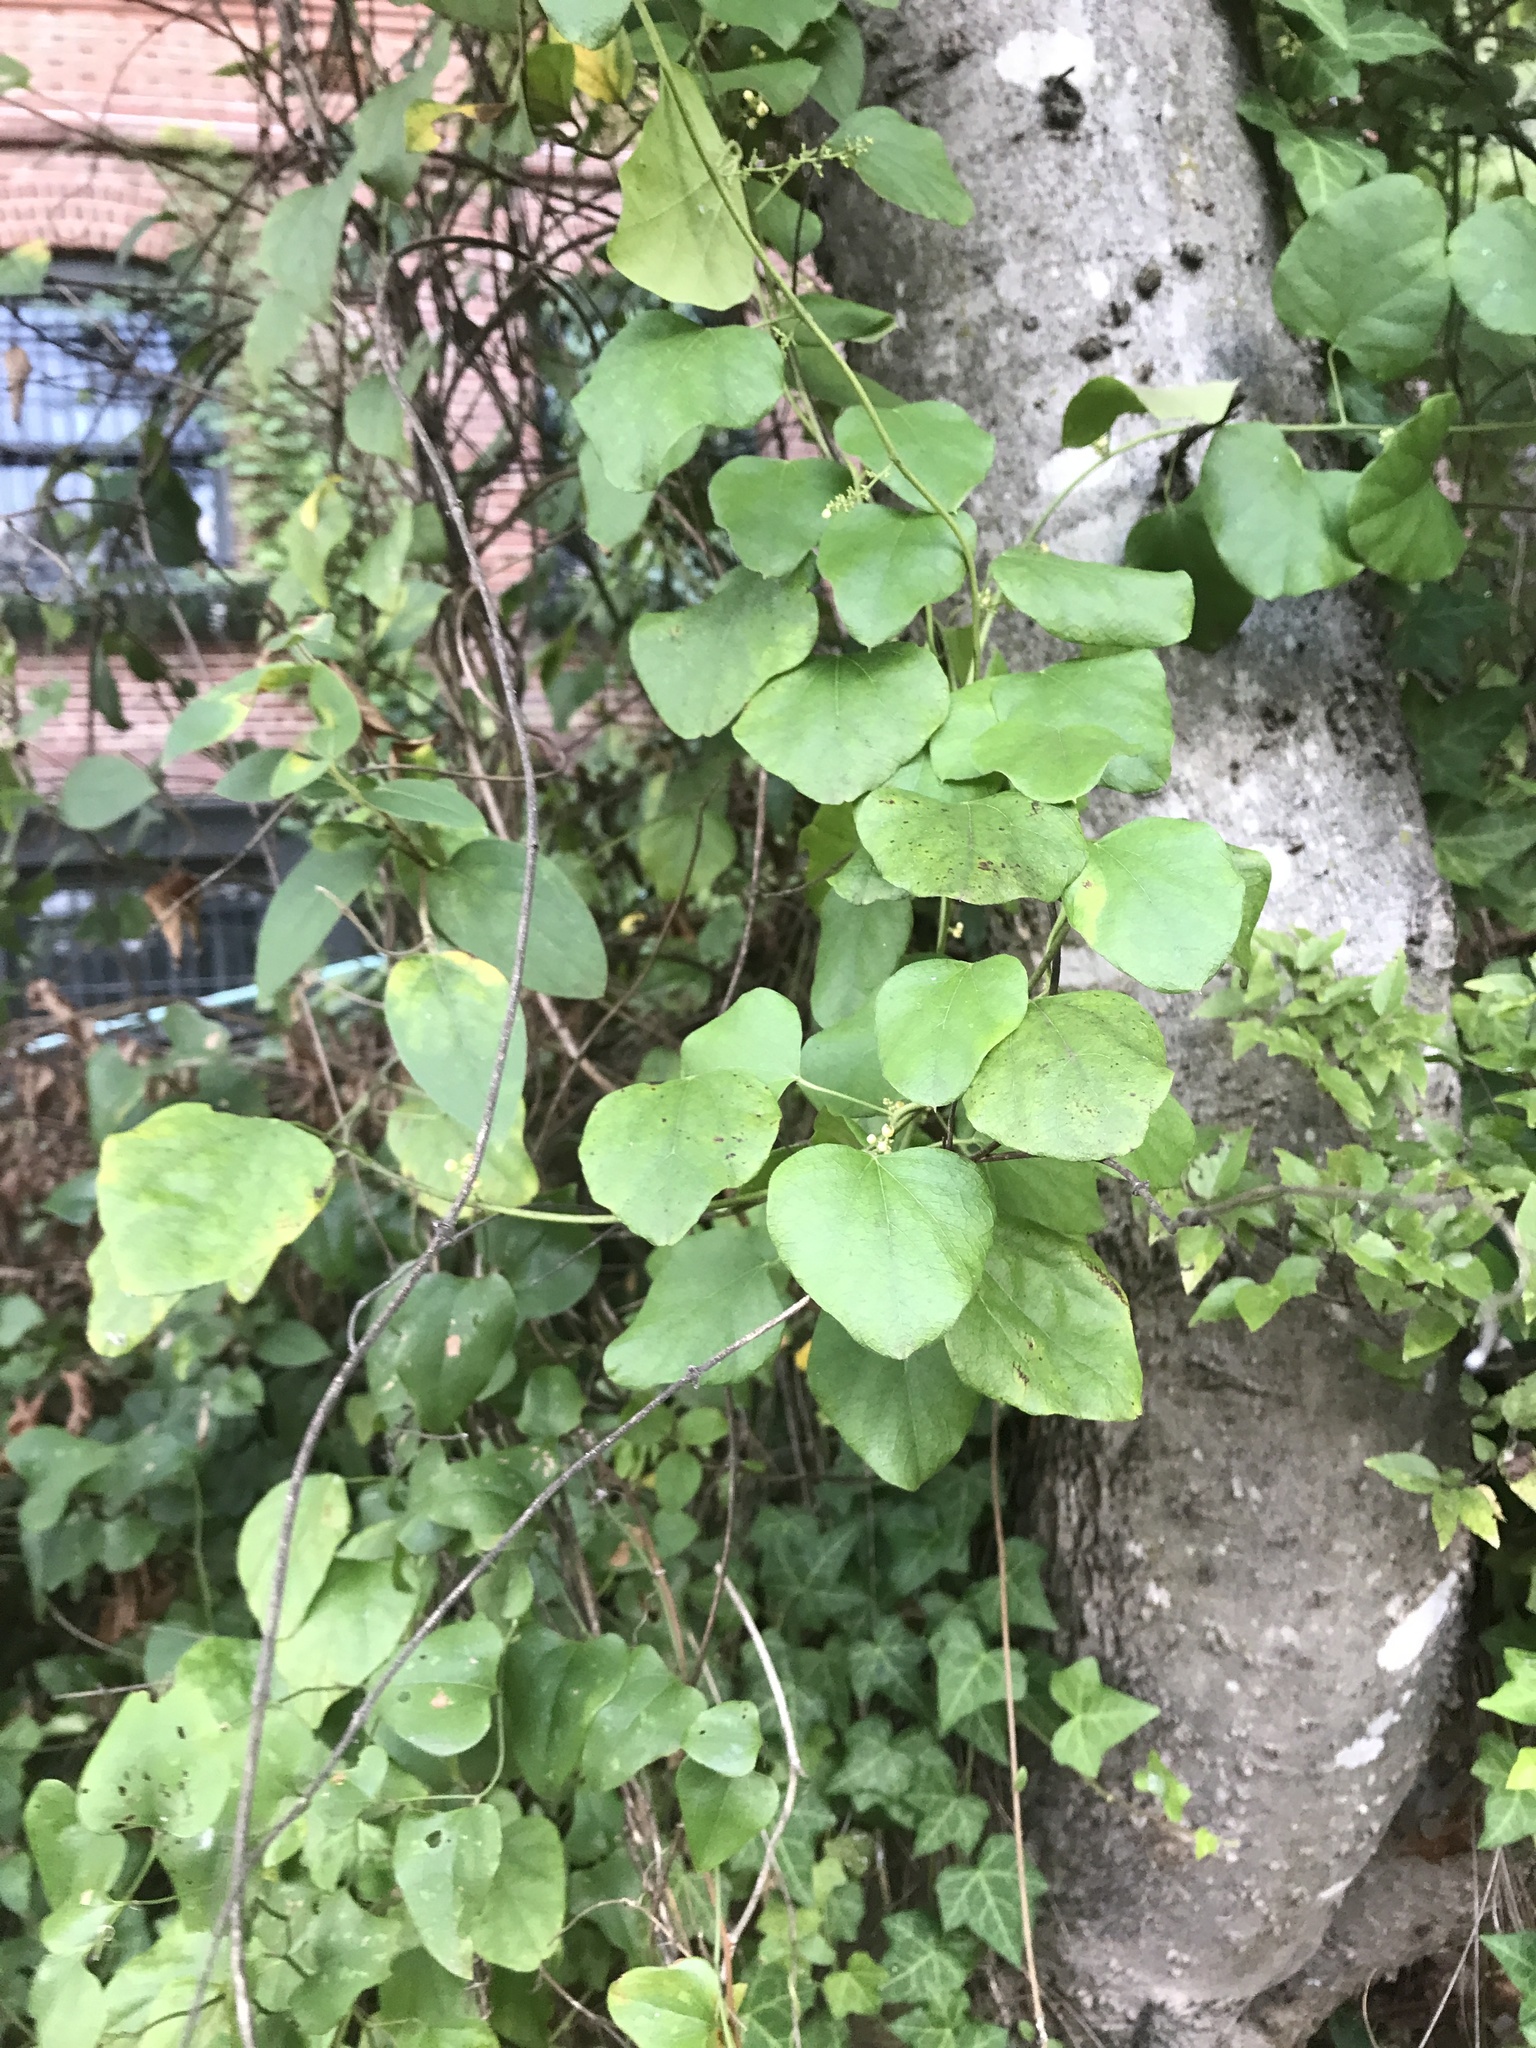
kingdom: Plantae
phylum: Tracheophyta
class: Magnoliopsida
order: Ranunculales
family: Menispermaceae
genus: Cocculus
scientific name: Cocculus carolinus
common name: Carolina moonseed
